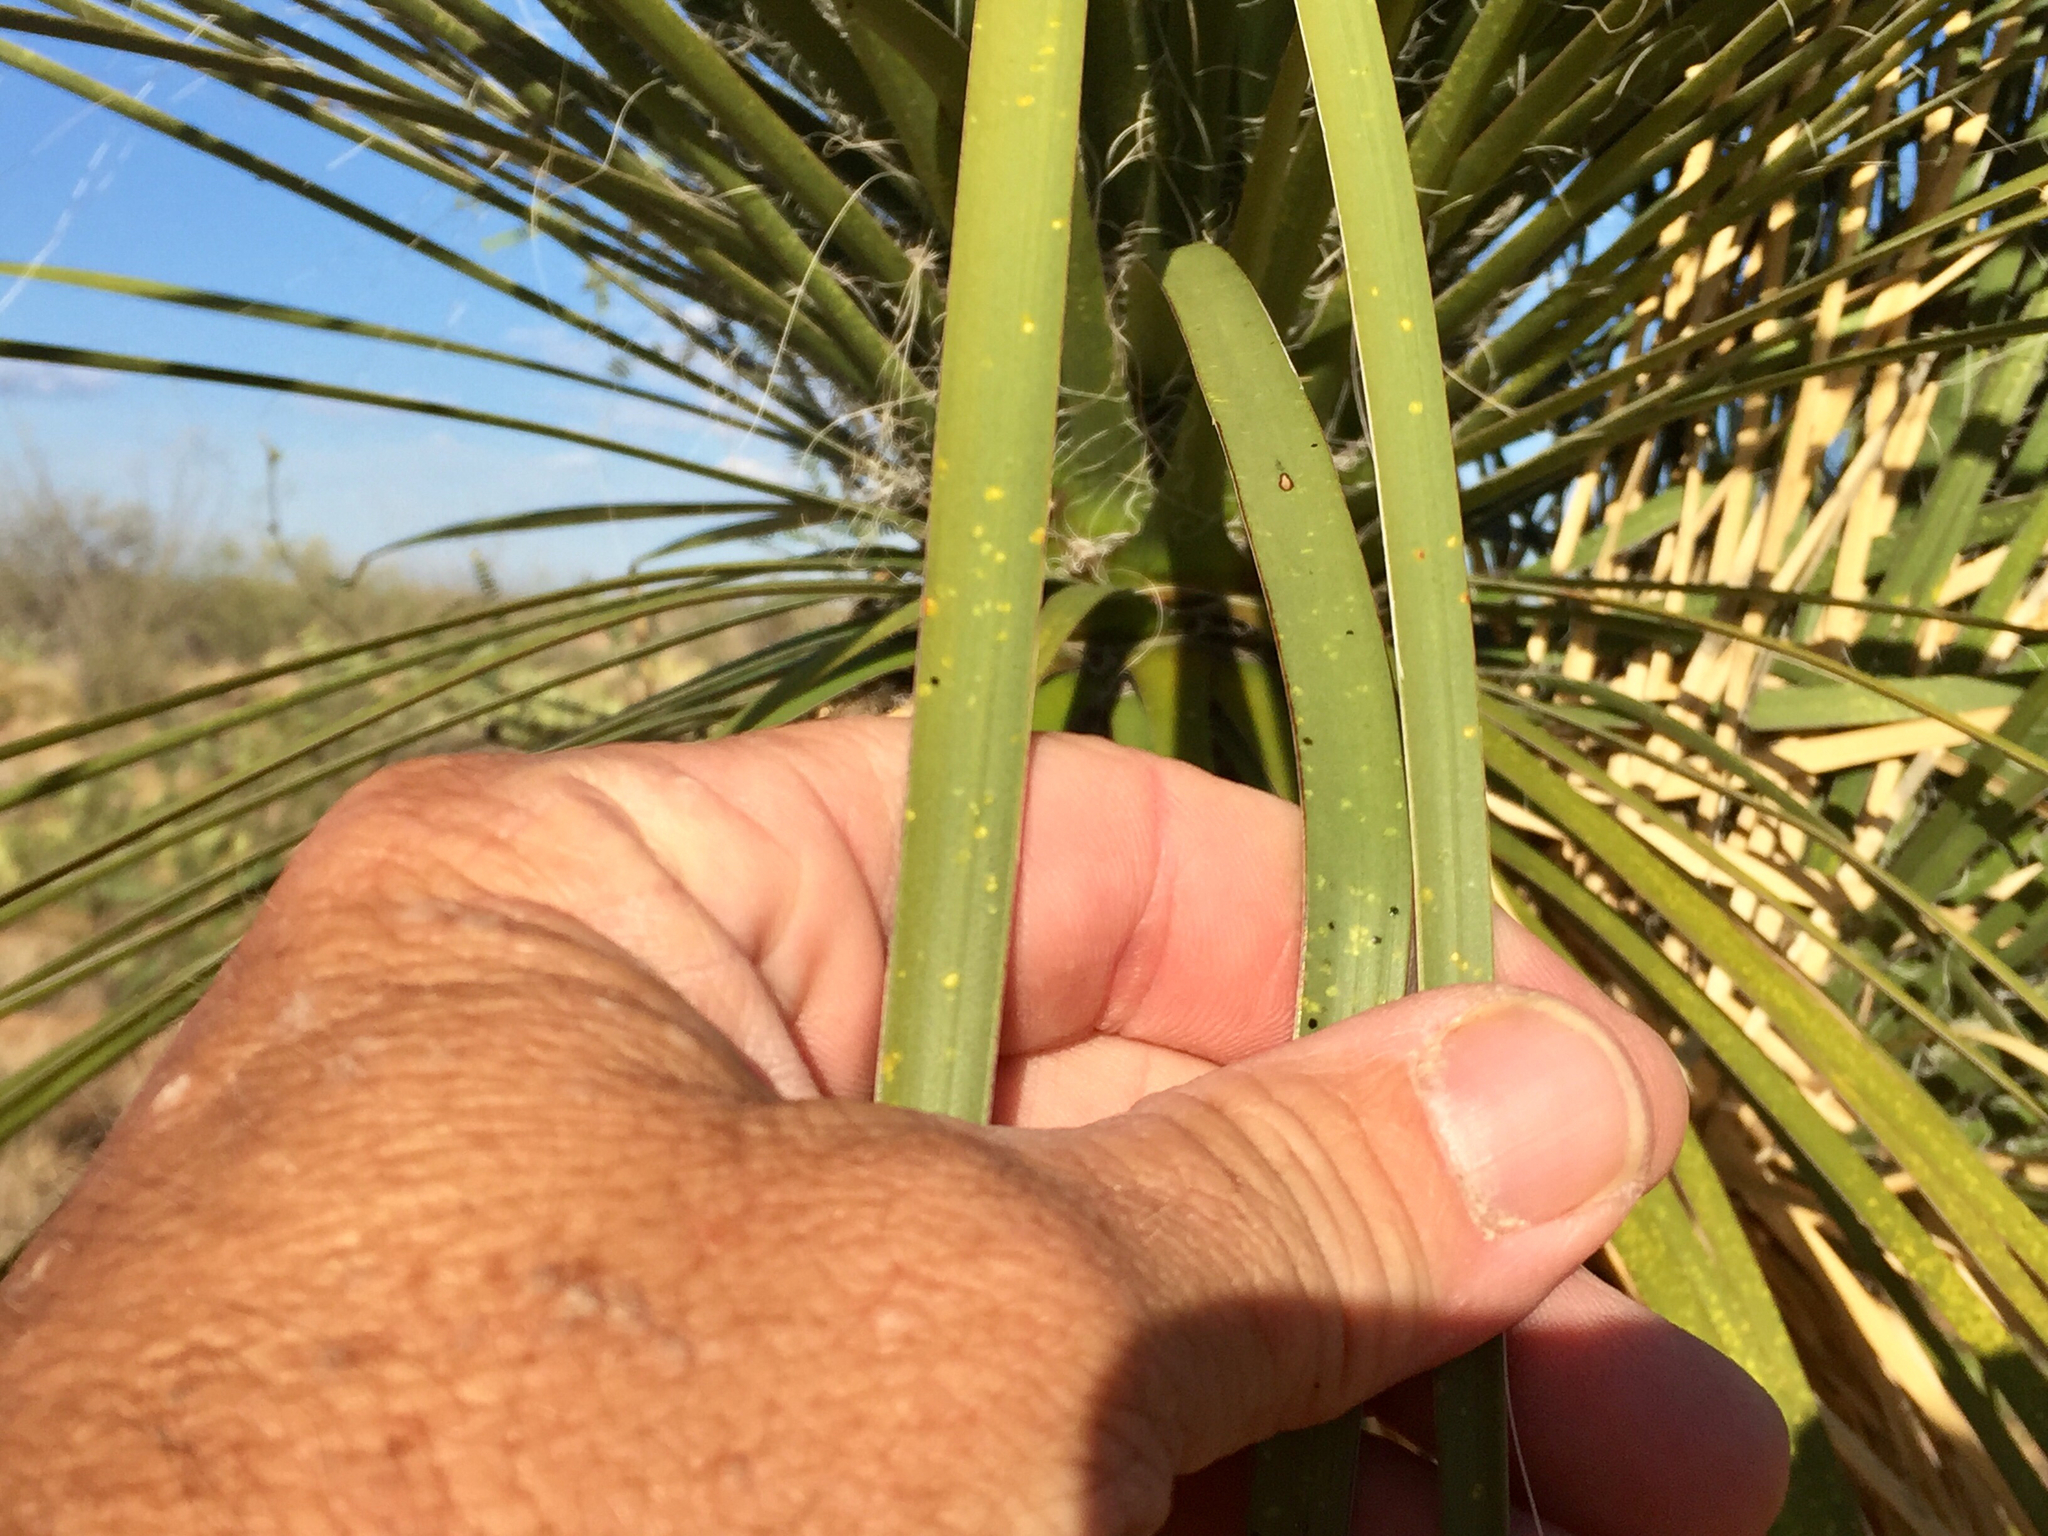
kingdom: Plantae
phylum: Tracheophyta
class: Liliopsida
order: Asparagales
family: Asparagaceae
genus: Yucca
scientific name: Yucca elata
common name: Palmella
